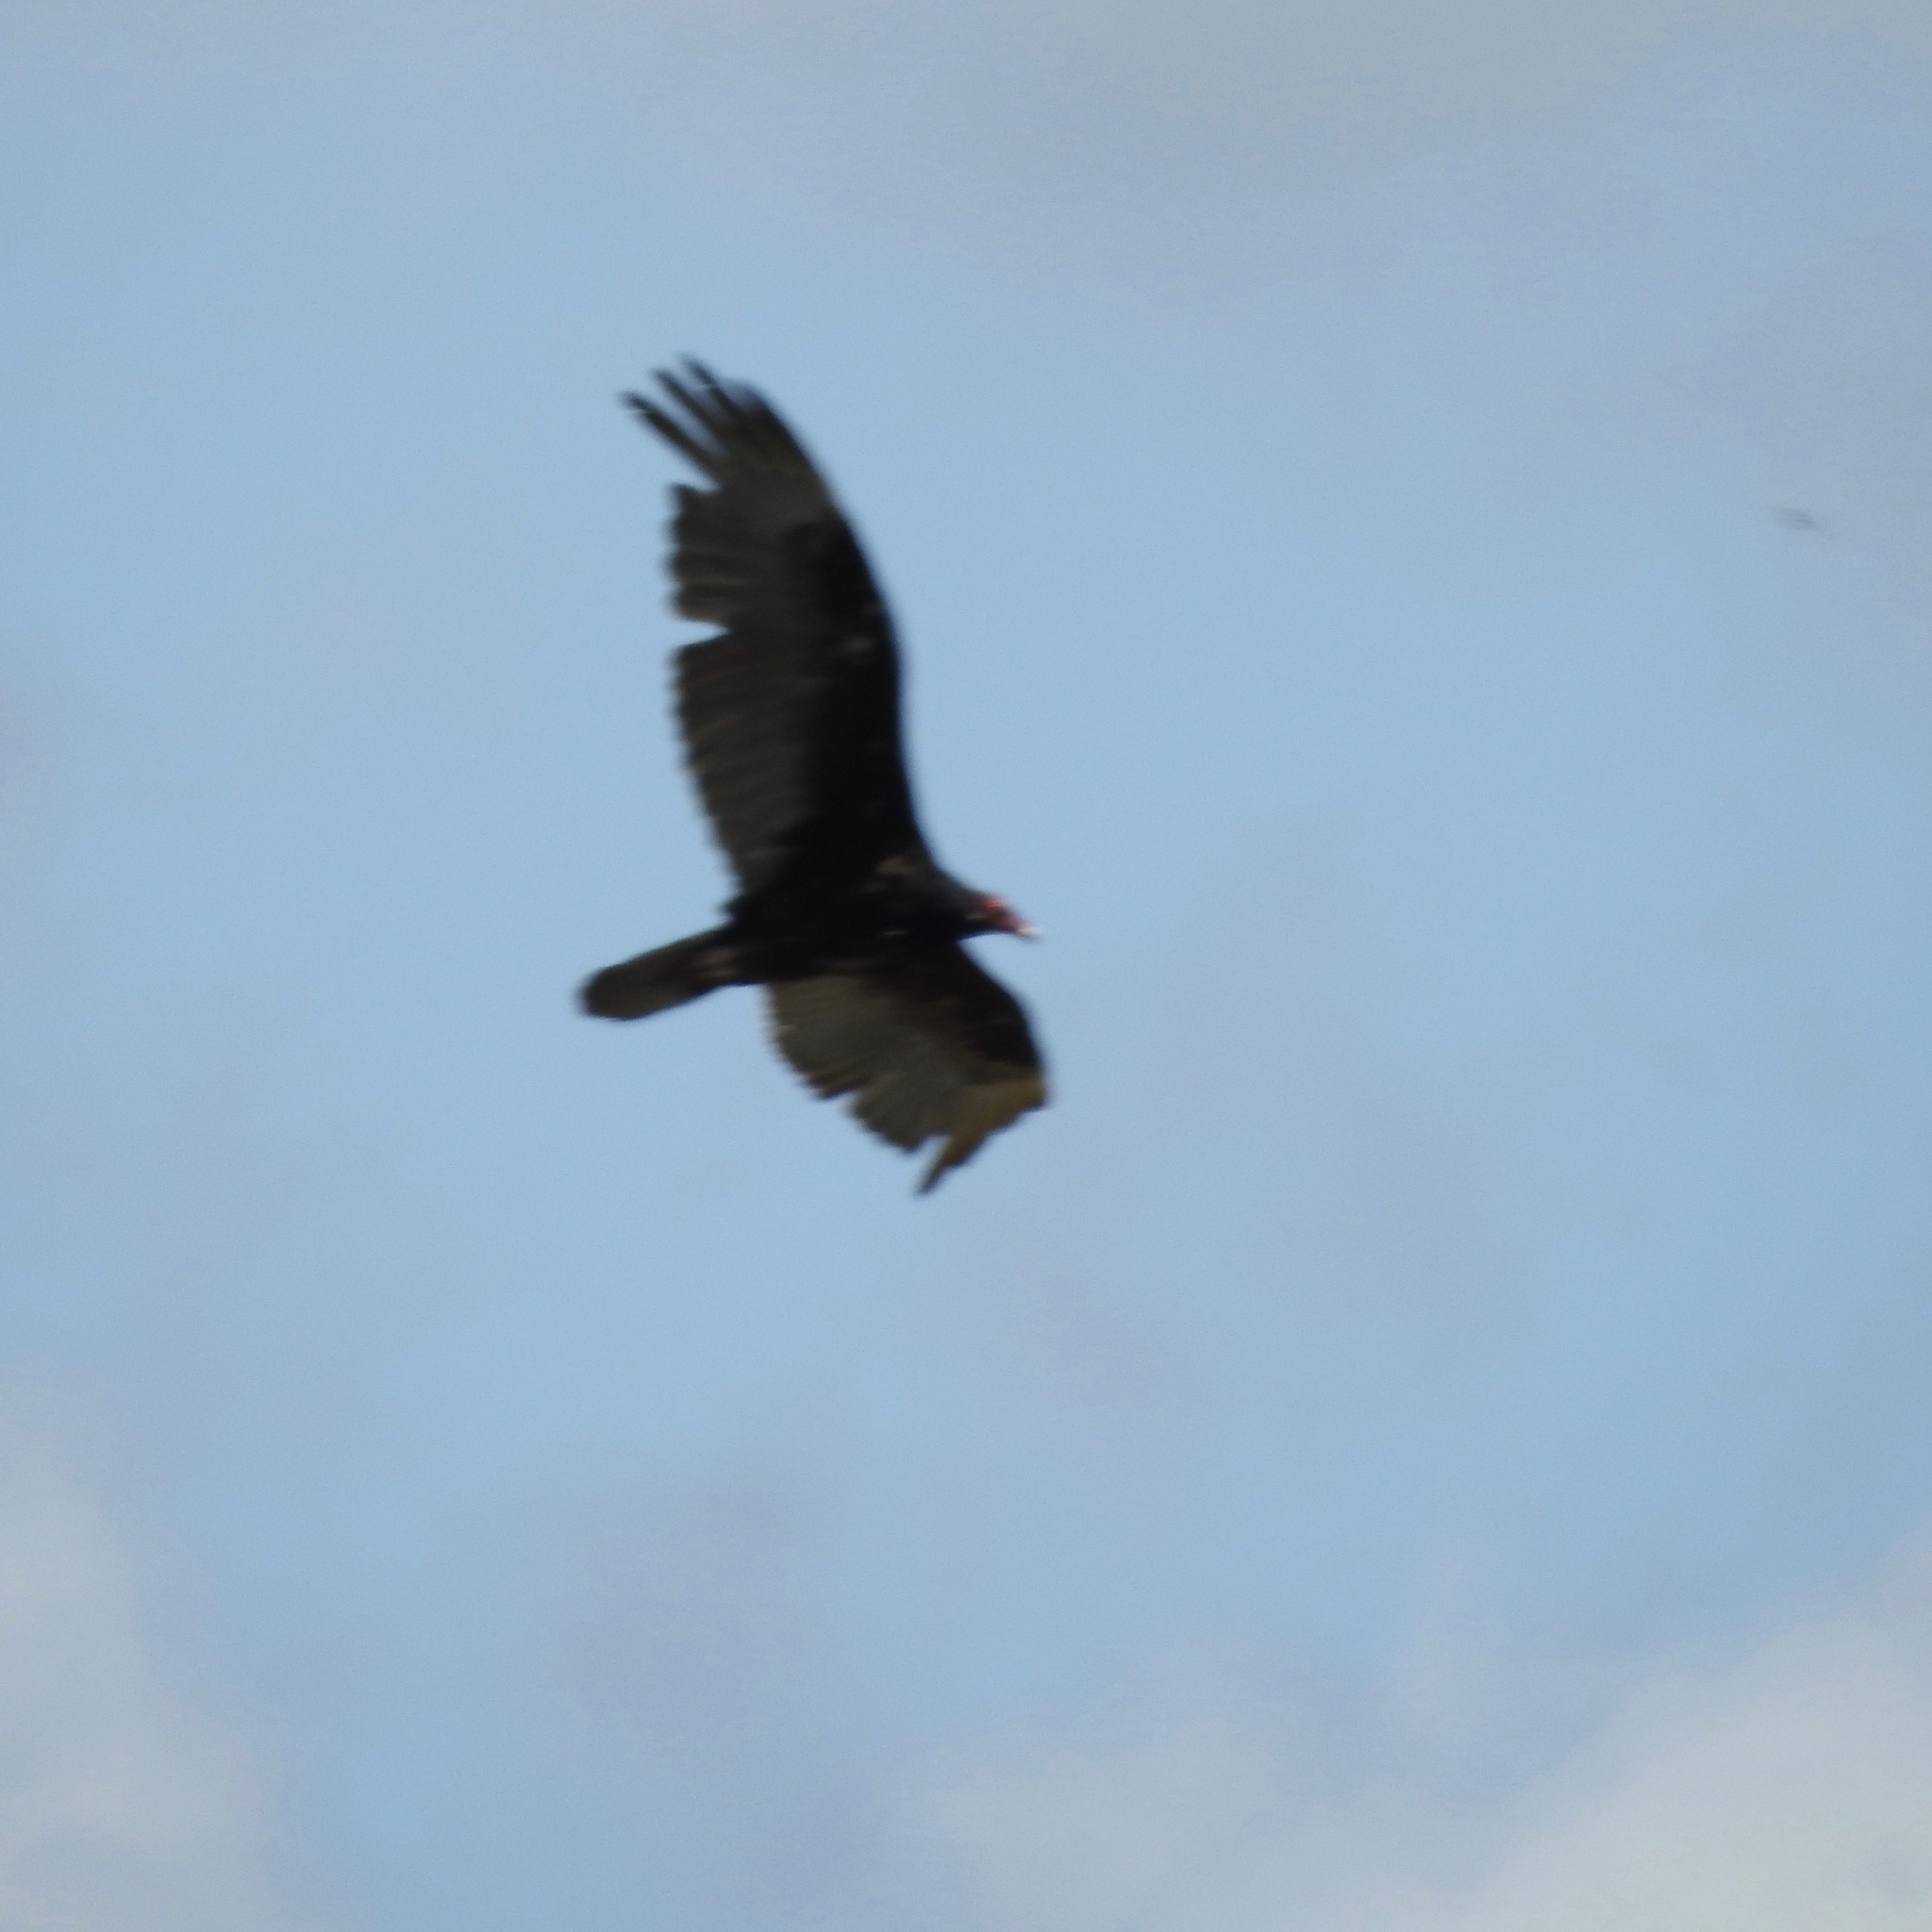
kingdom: Animalia
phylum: Chordata
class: Aves
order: Accipitriformes
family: Cathartidae
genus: Cathartes
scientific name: Cathartes aura
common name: Turkey vulture
